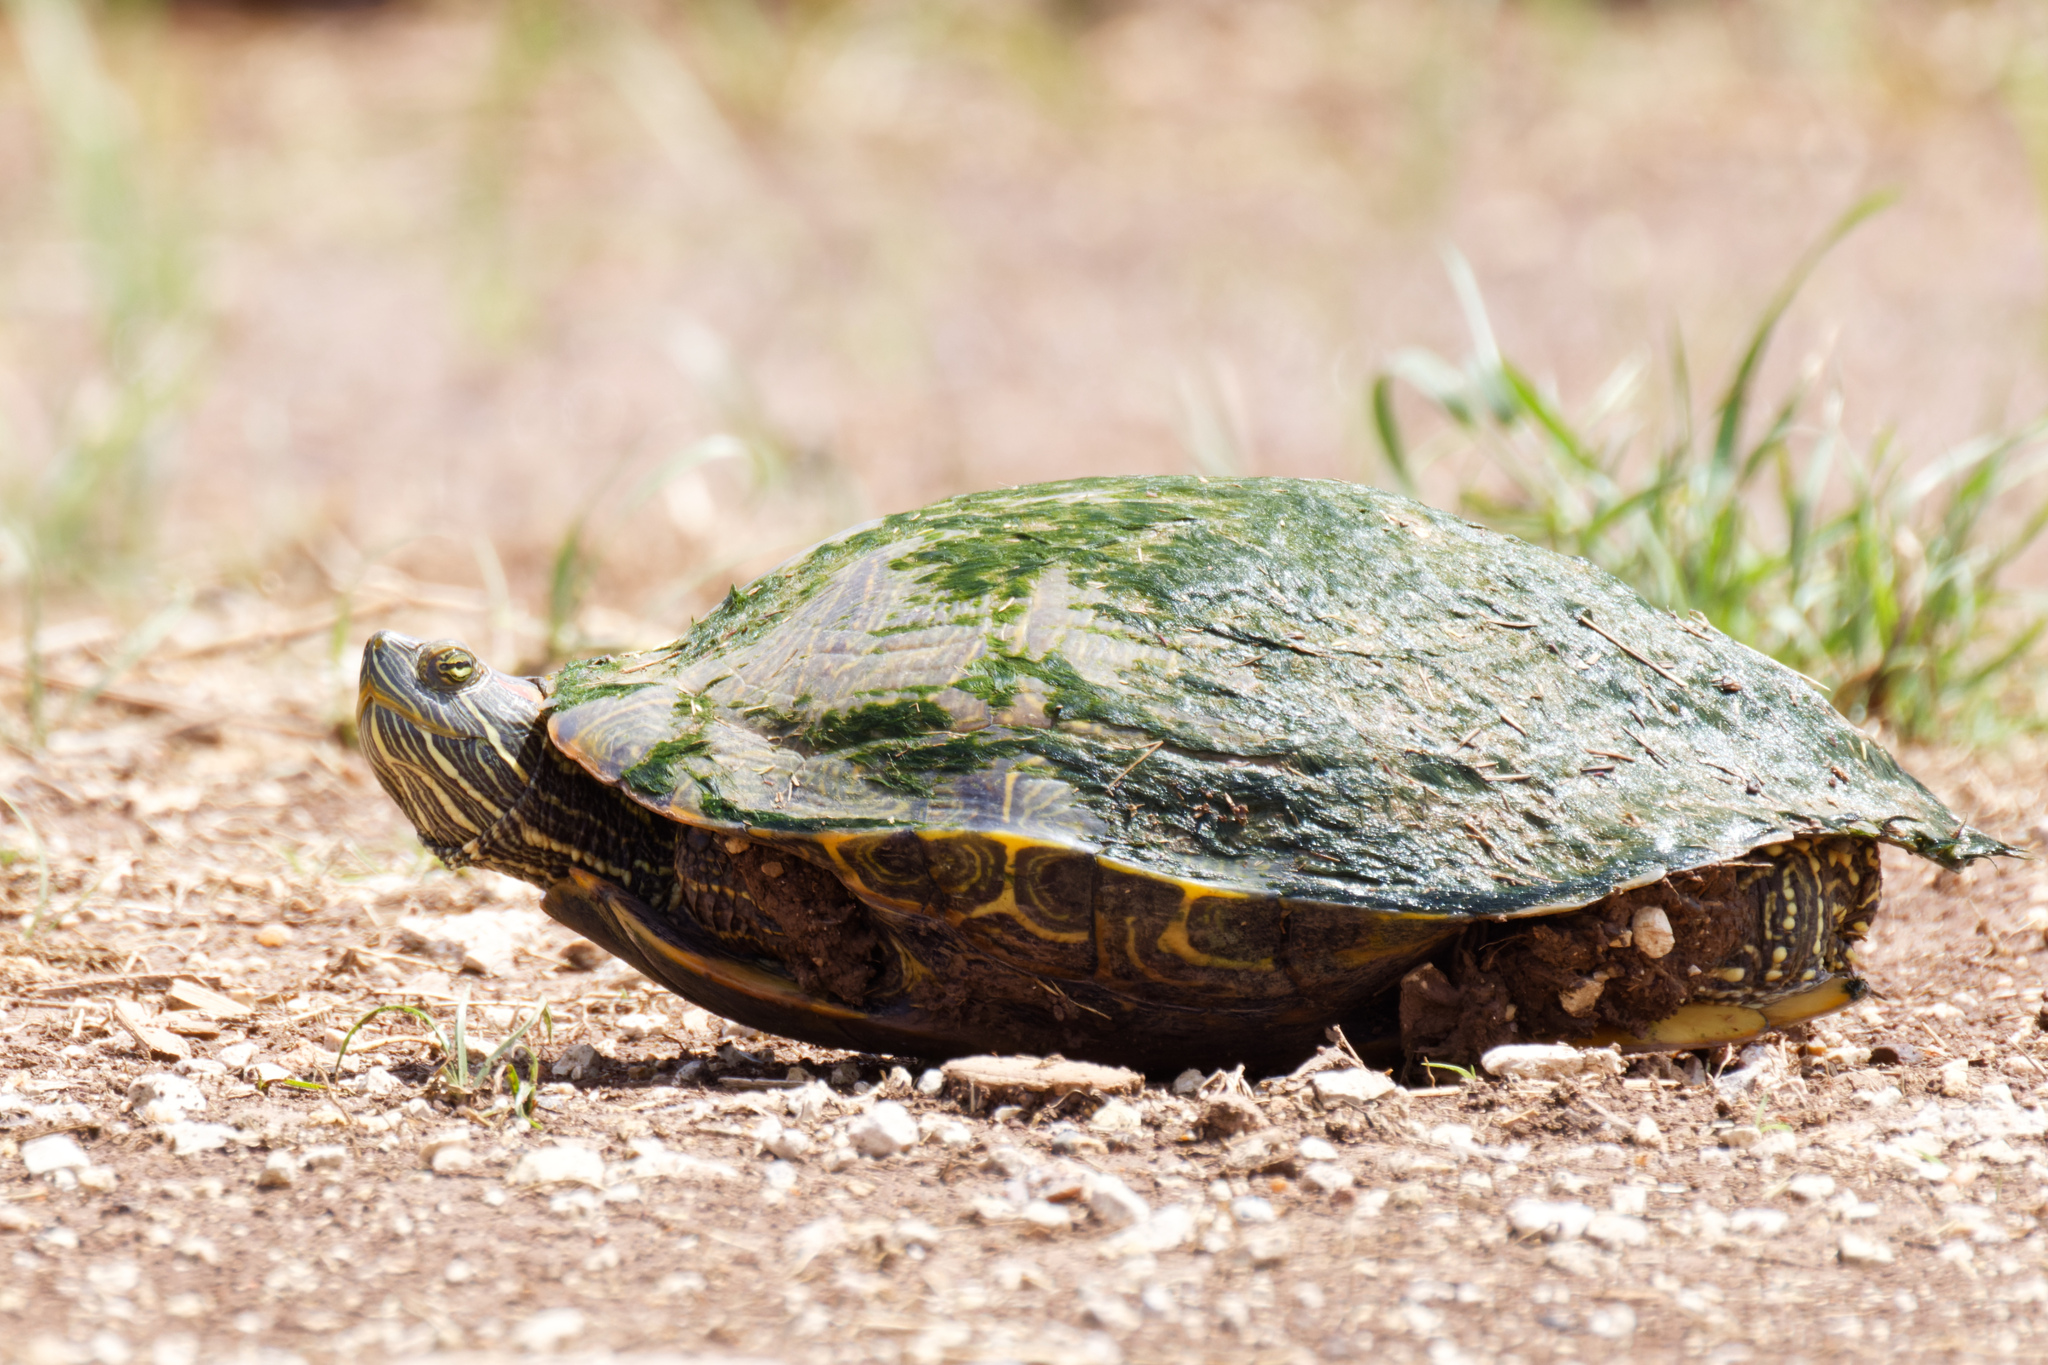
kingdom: Animalia
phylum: Chordata
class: Testudines
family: Emydidae
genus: Trachemys
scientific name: Trachemys scripta
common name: Slider
